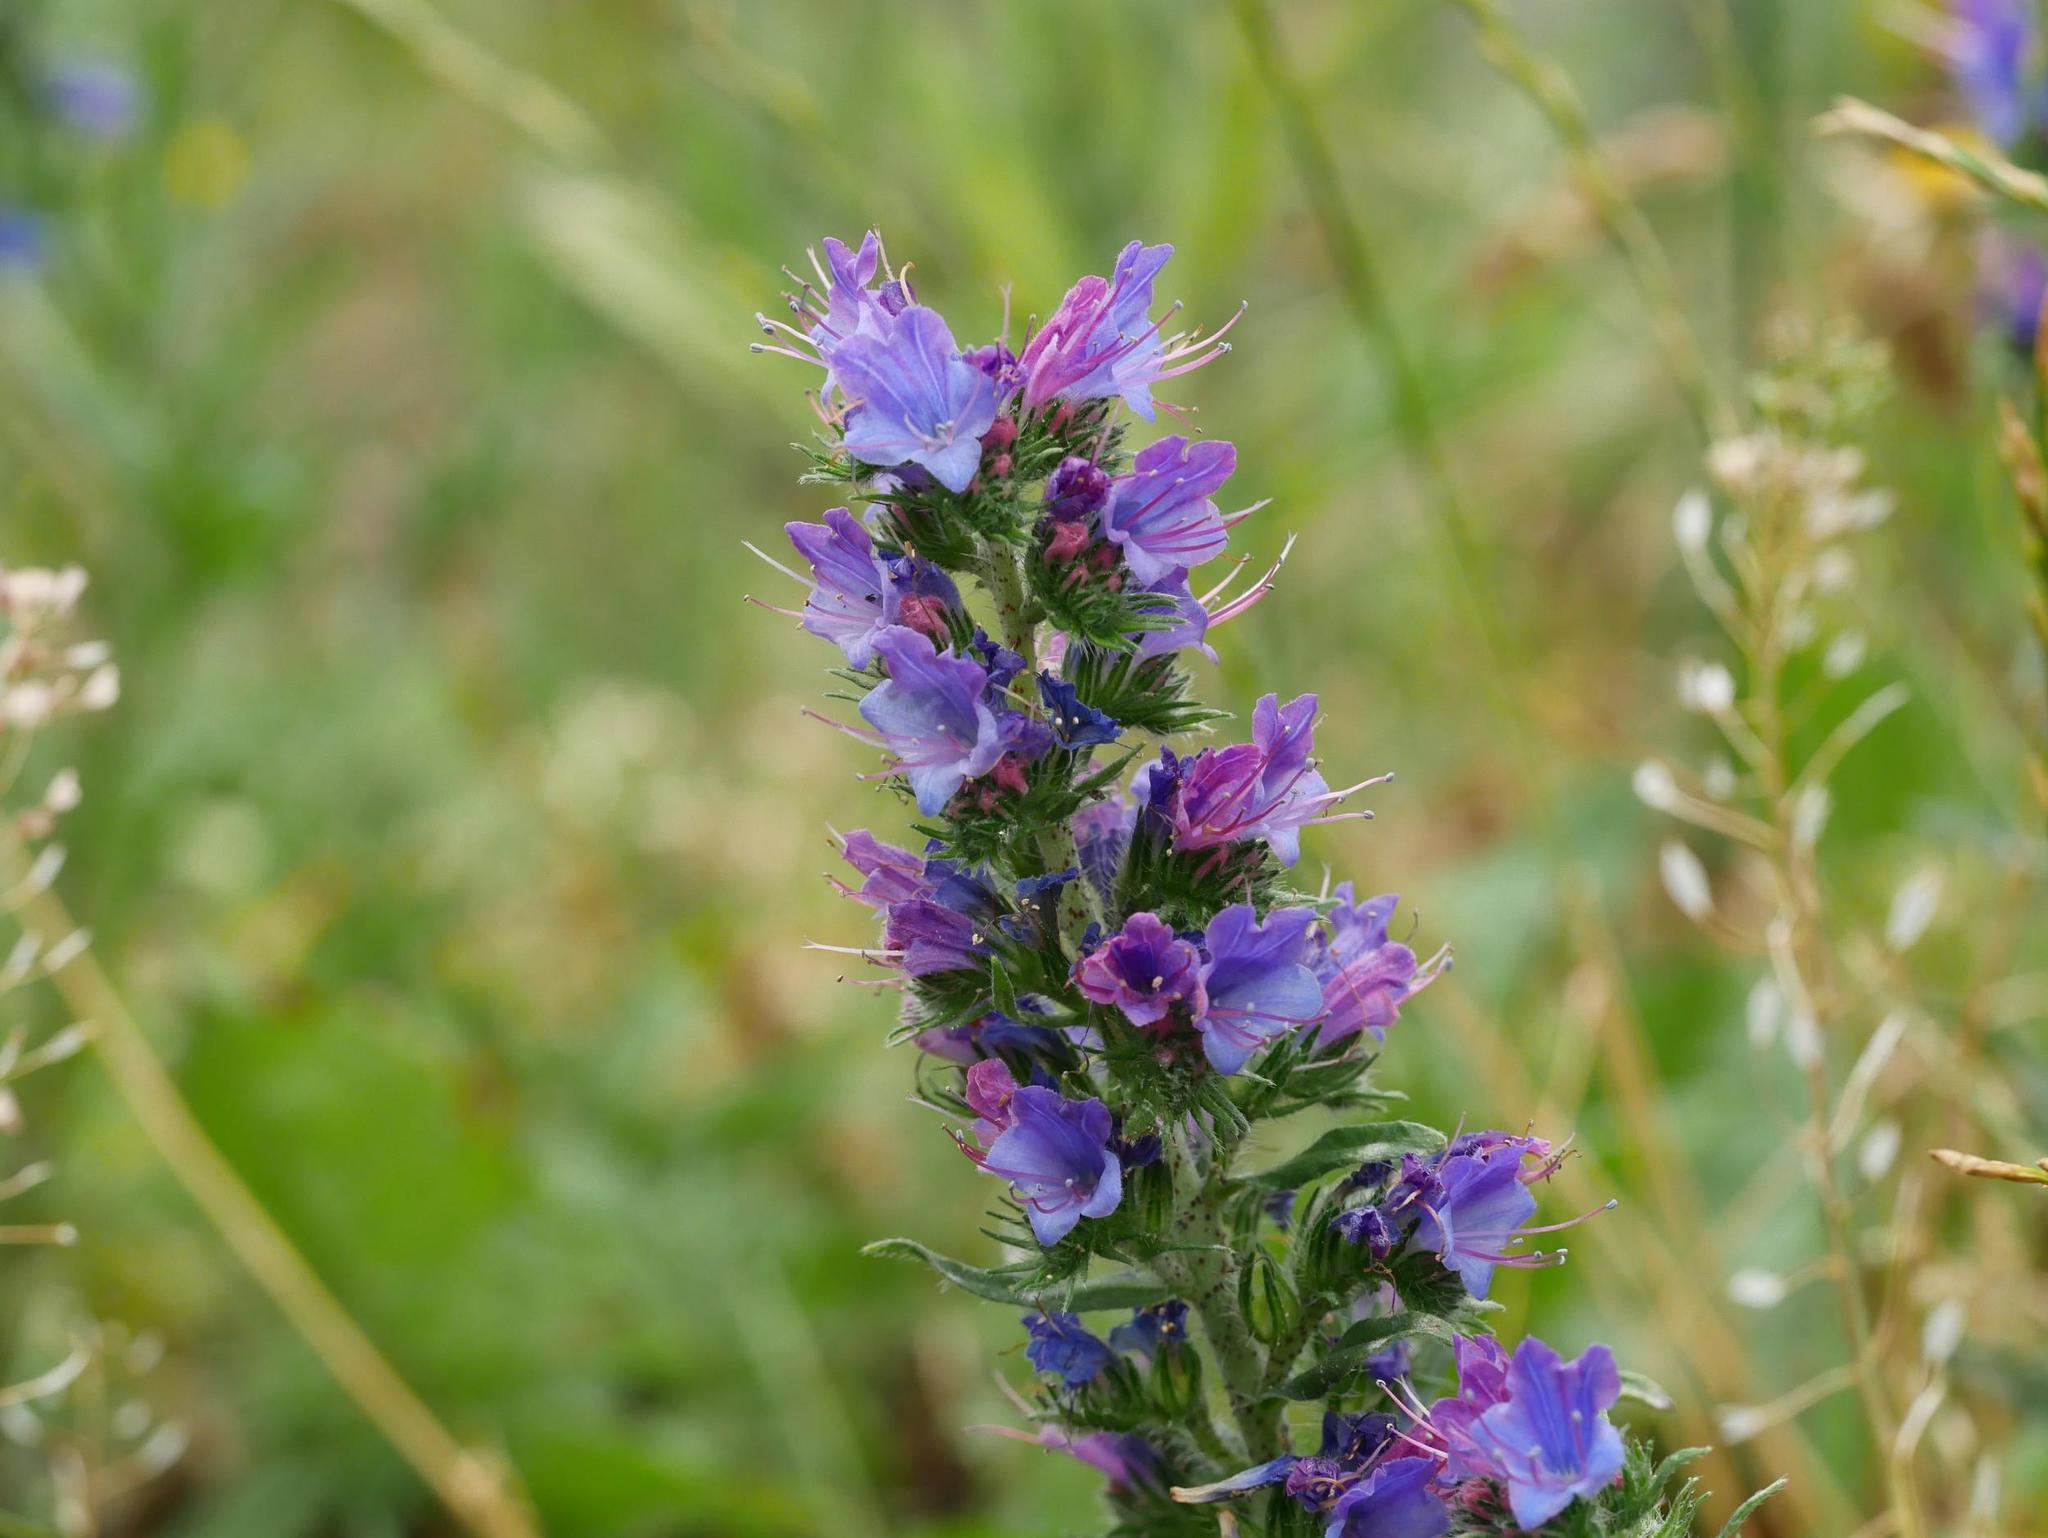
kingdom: Plantae
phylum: Tracheophyta
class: Magnoliopsida
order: Boraginales
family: Boraginaceae
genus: Echium
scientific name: Echium vulgare
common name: Common viper's bugloss
